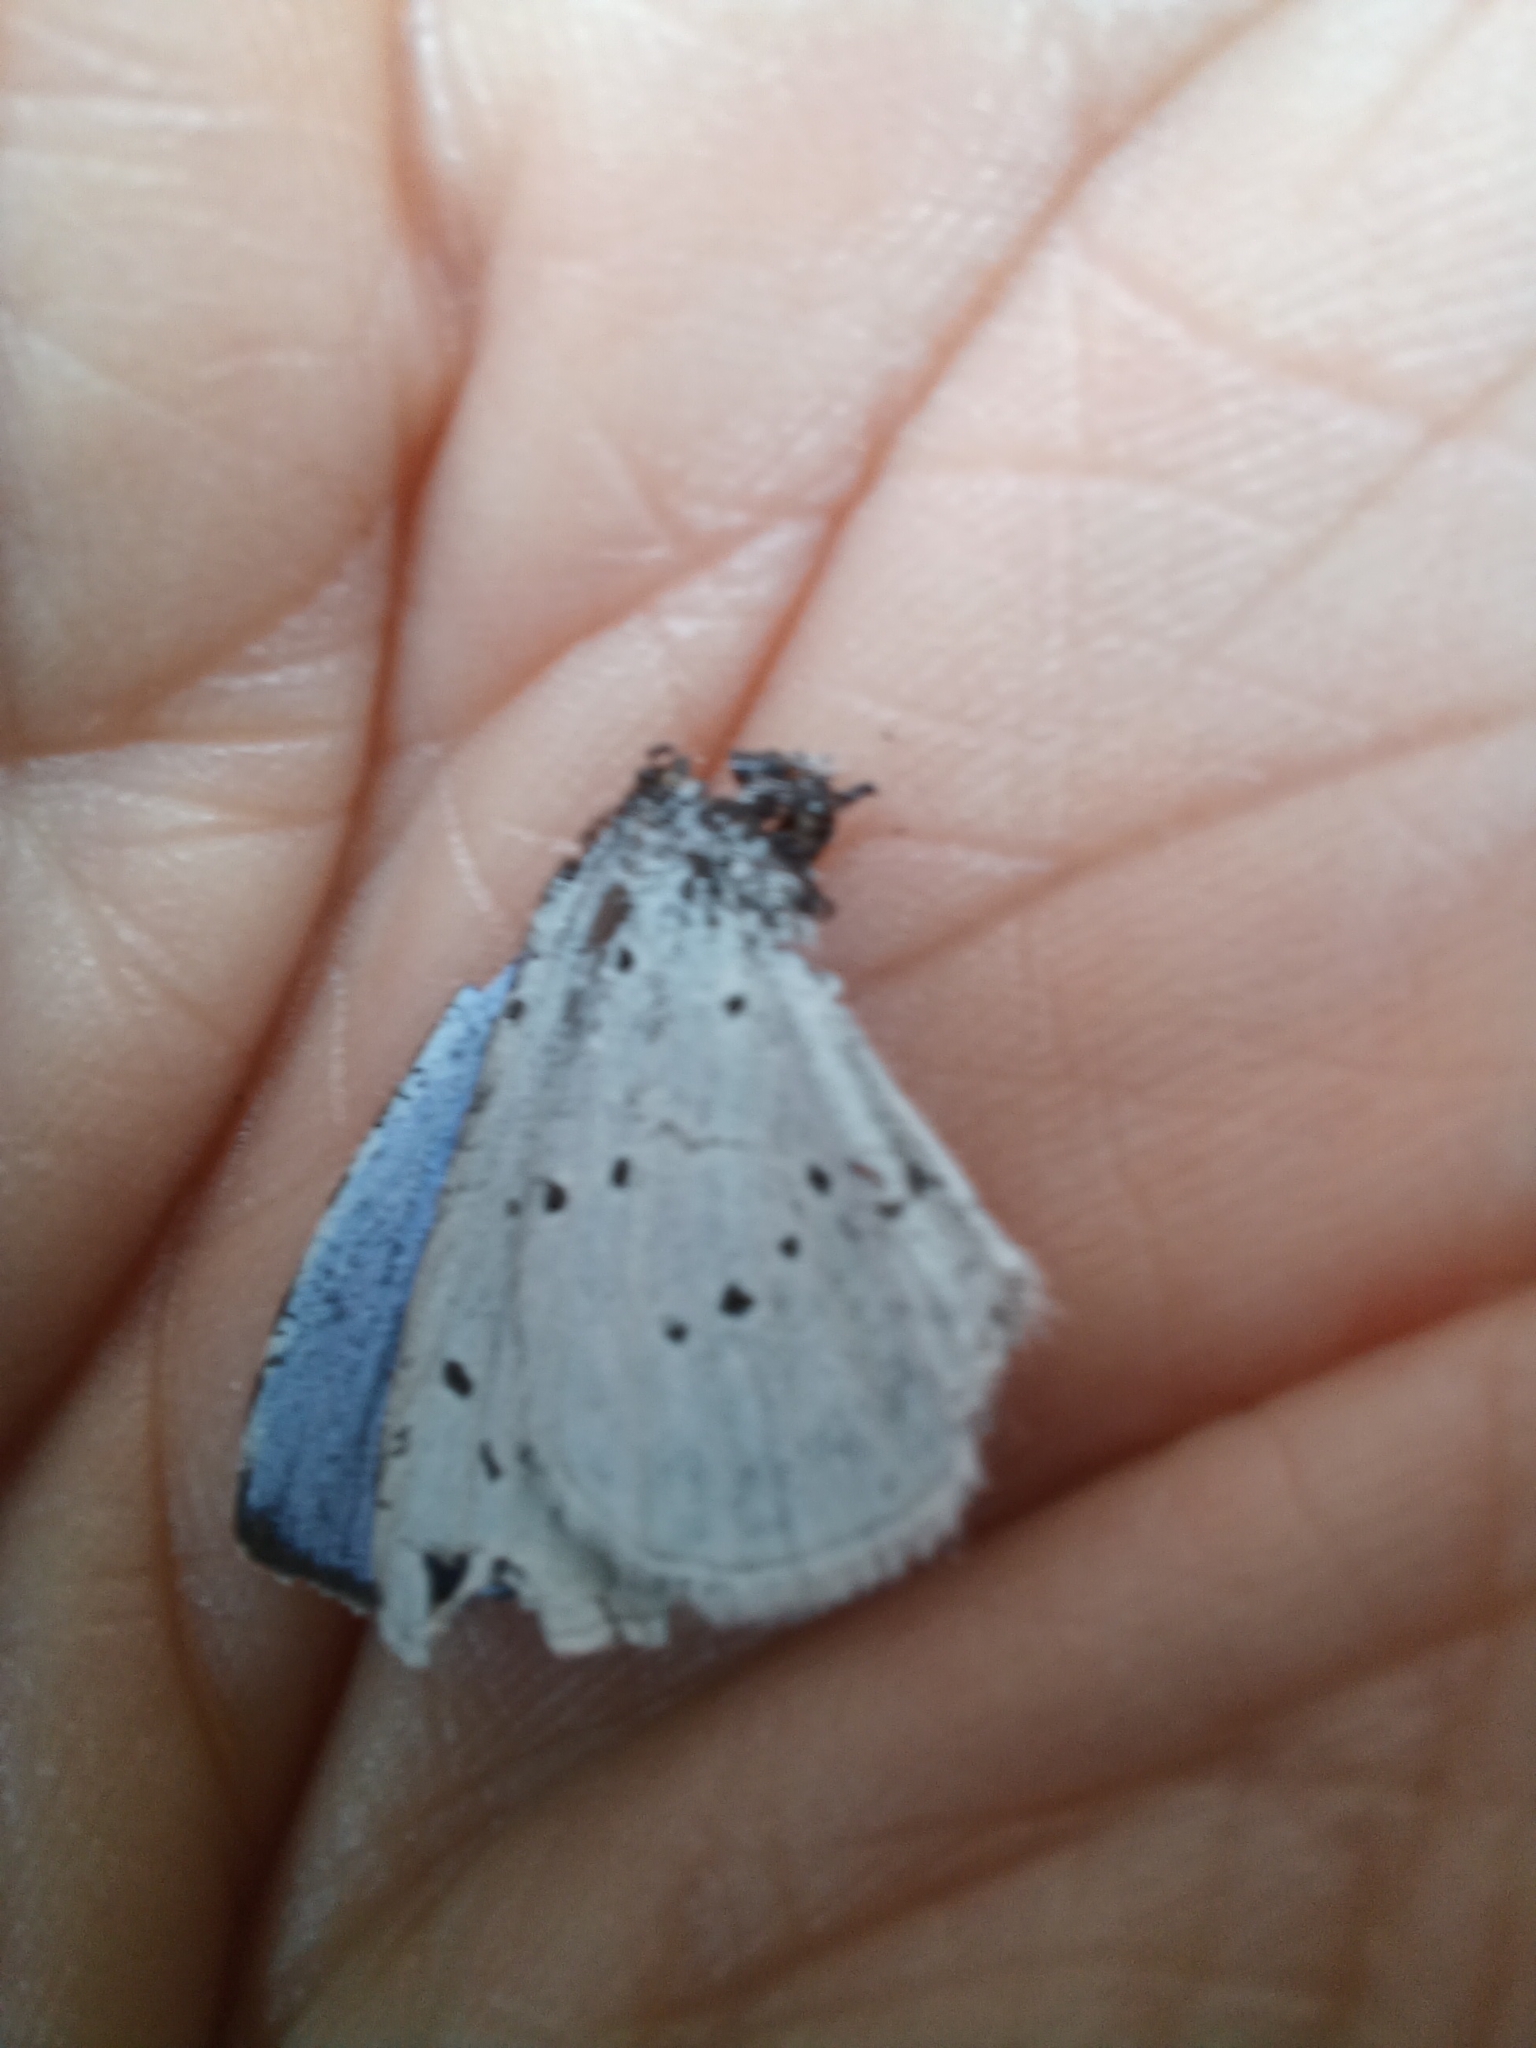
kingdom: Animalia
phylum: Arthropoda
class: Insecta
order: Lepidoptera
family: Lycaenidae
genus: Celastrina
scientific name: Celastrina argiolus
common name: Holly blue
